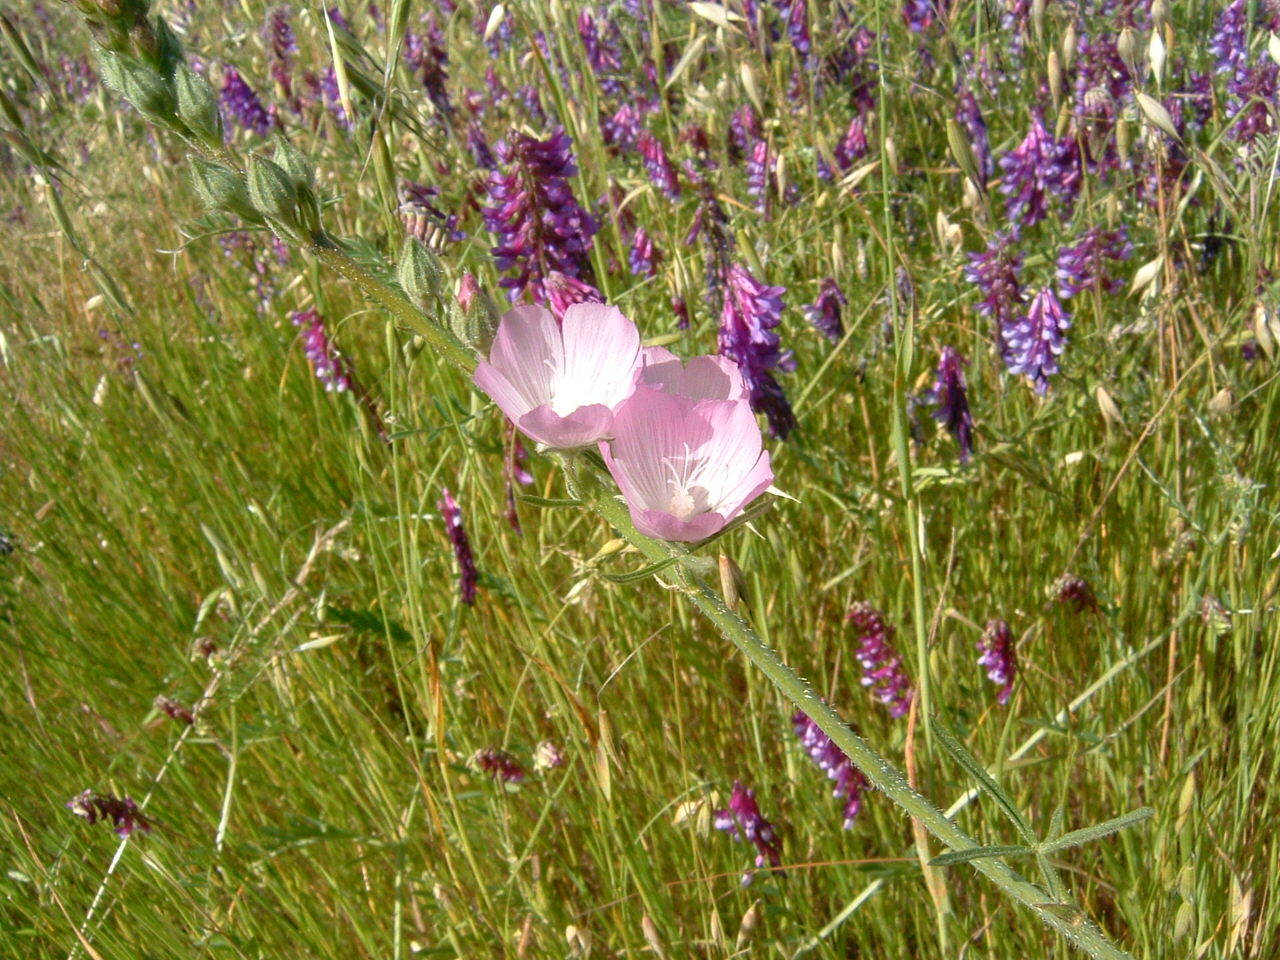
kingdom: Plantae
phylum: Tracheophyta
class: Magnoliopsida
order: Fabales
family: Fabaceae
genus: Vicia
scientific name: Vicia villosa
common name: Fodder vetch
